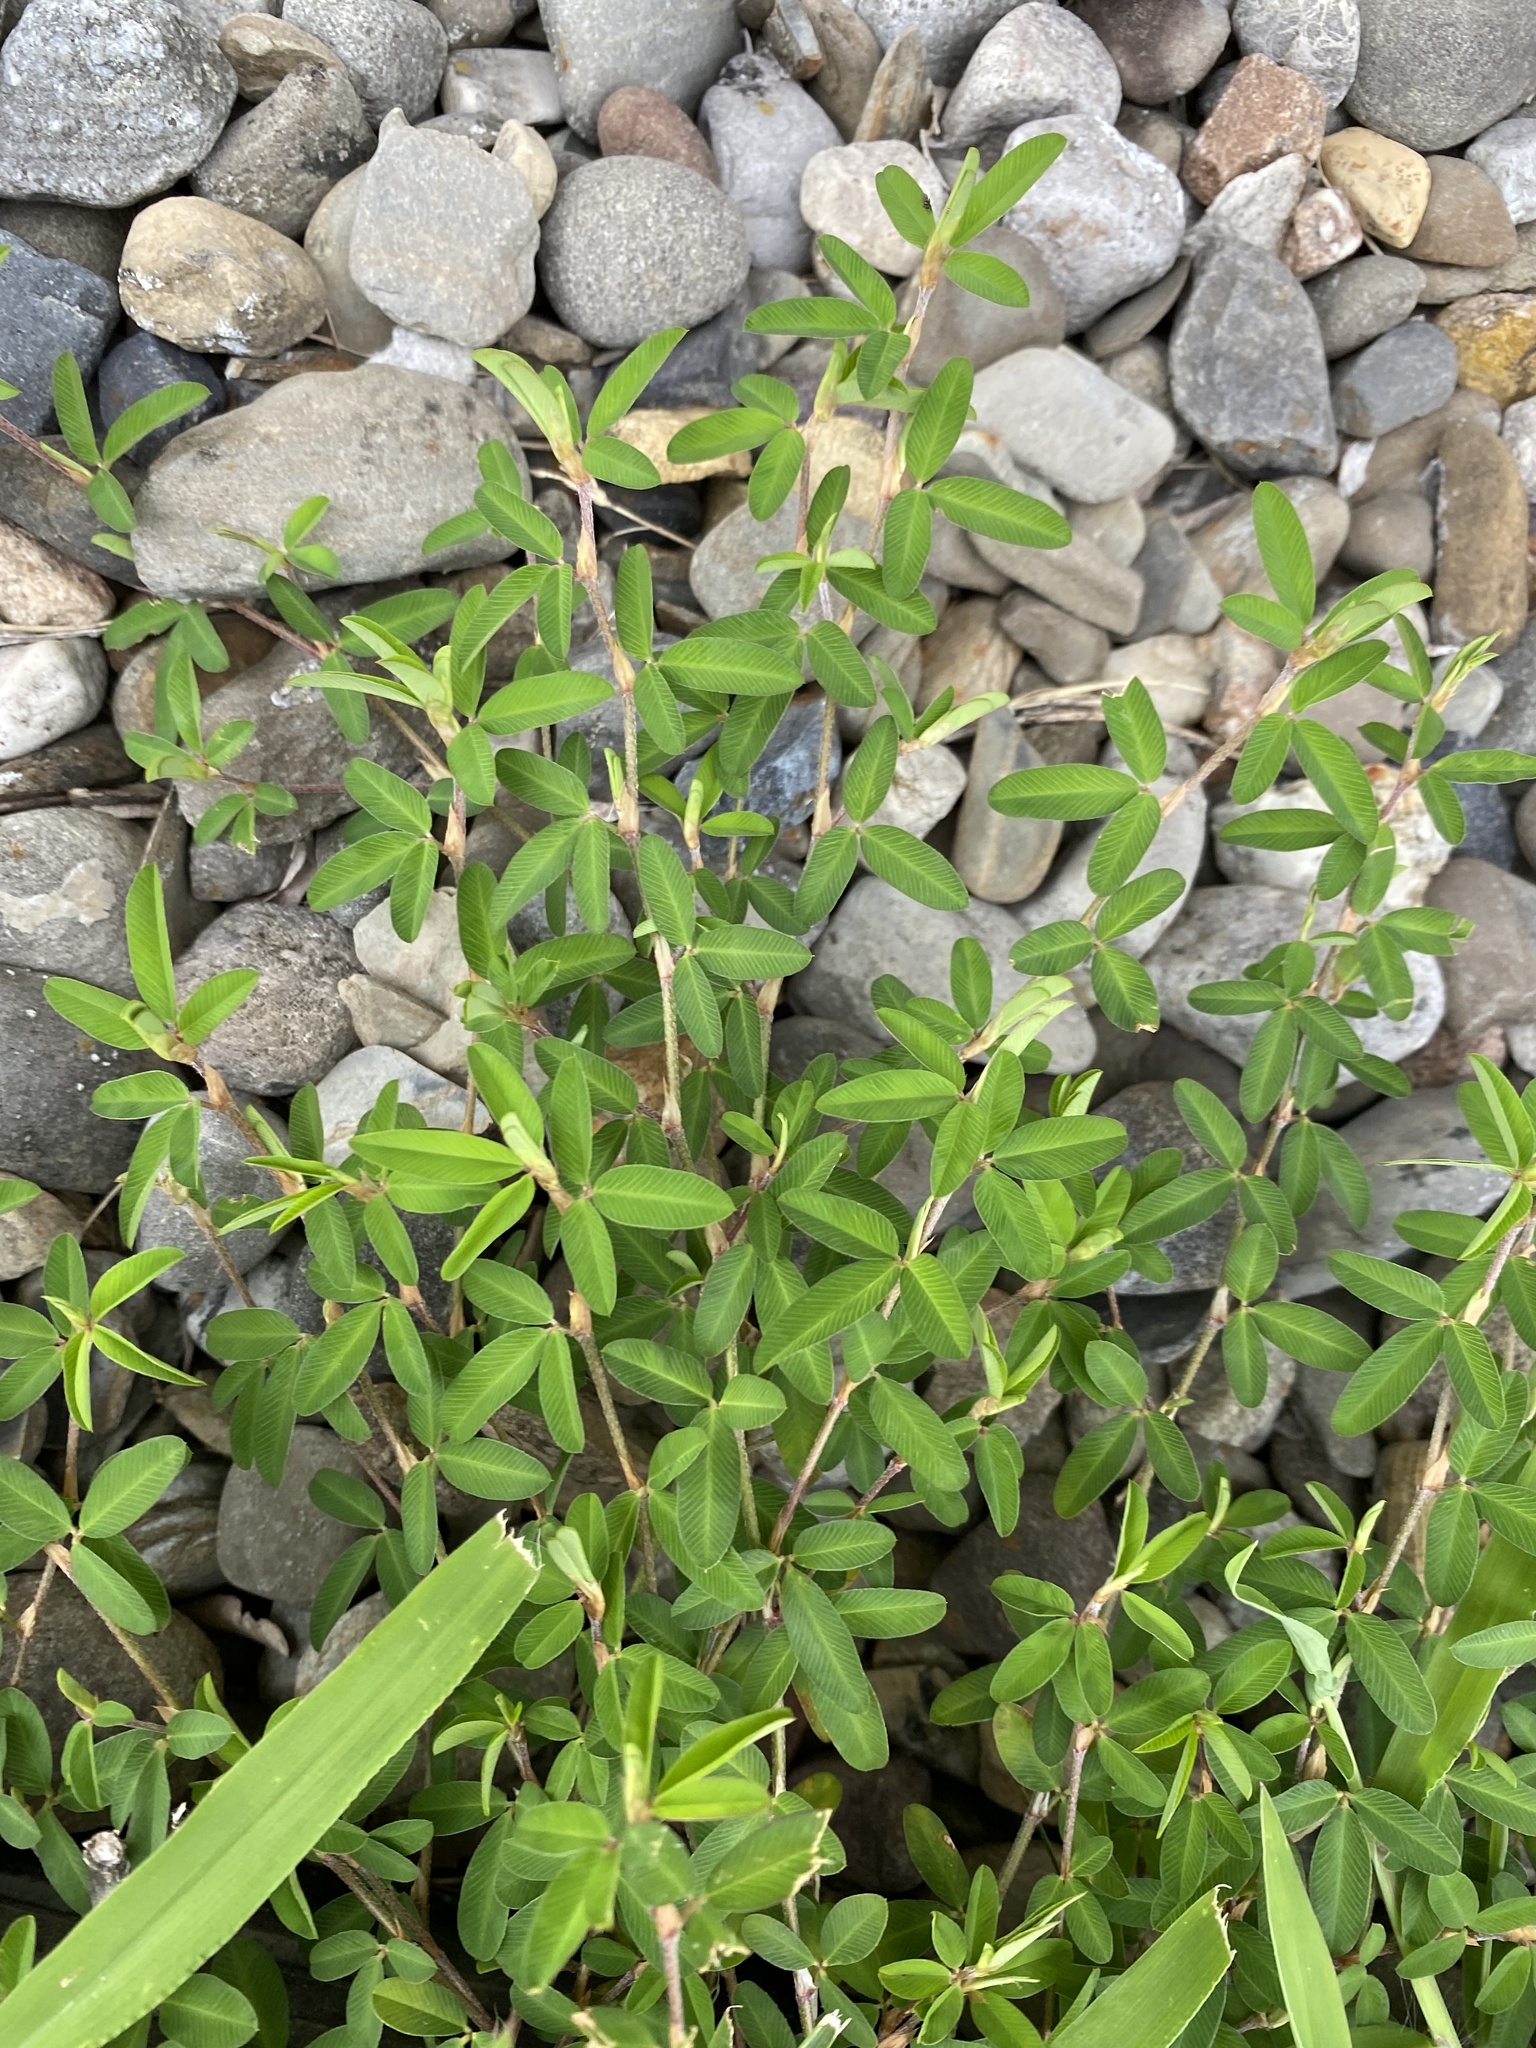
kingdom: Plantae
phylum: Tracheophyta
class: Magnoliopsida
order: Fabales
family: Fabaceae
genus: Kummerowia
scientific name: Kummerowia striata
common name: Japanese clover
